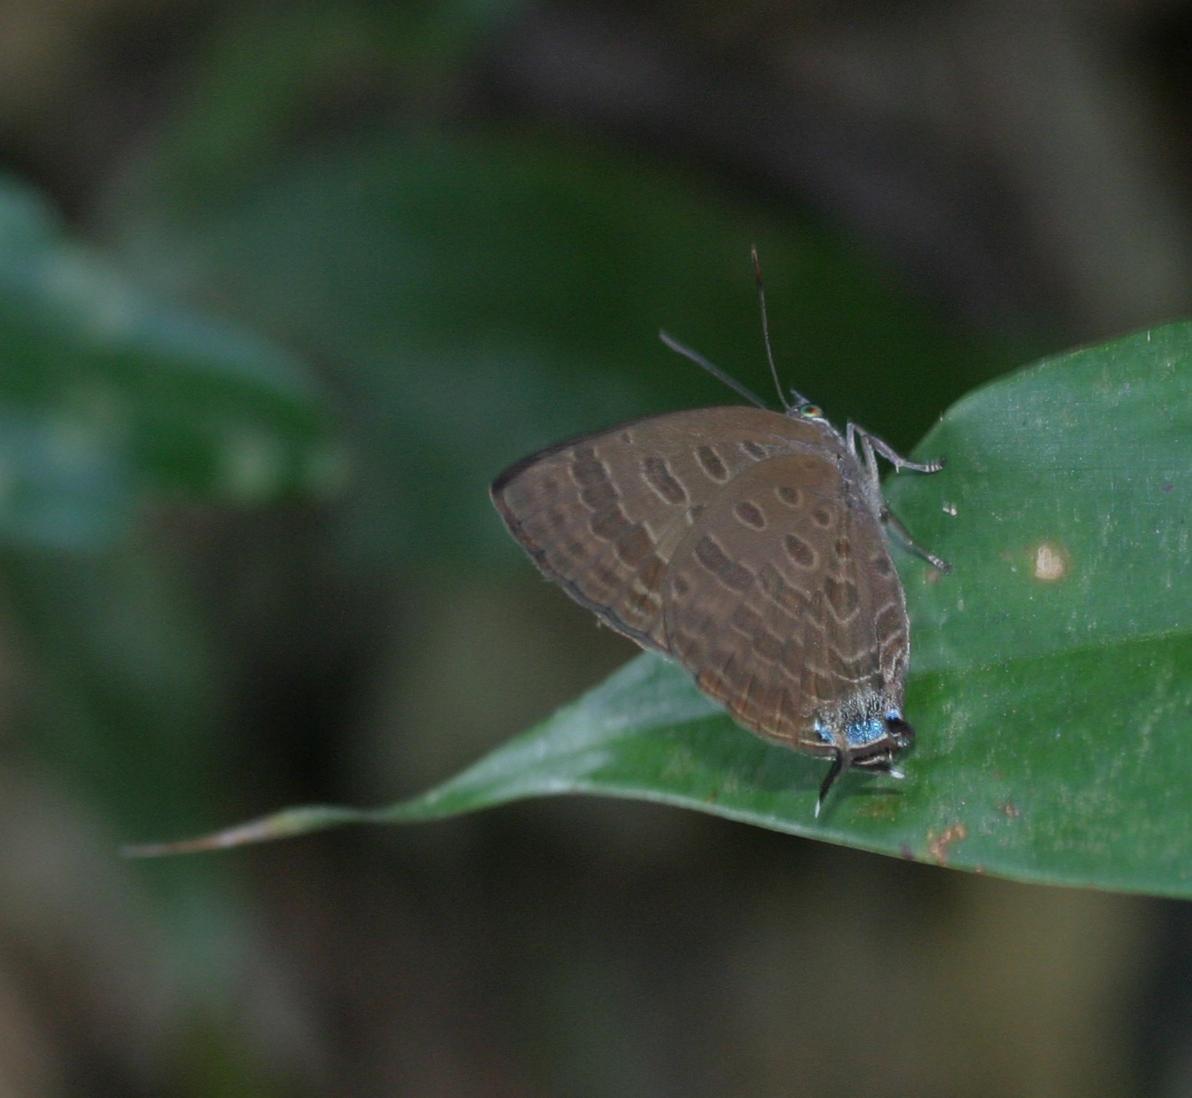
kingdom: Animalia
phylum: Arthropoda
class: Insecta
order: Lepidoptera
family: Lycaenidae
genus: Arhopala
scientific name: Arhopala athada
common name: Vinous oakblue
